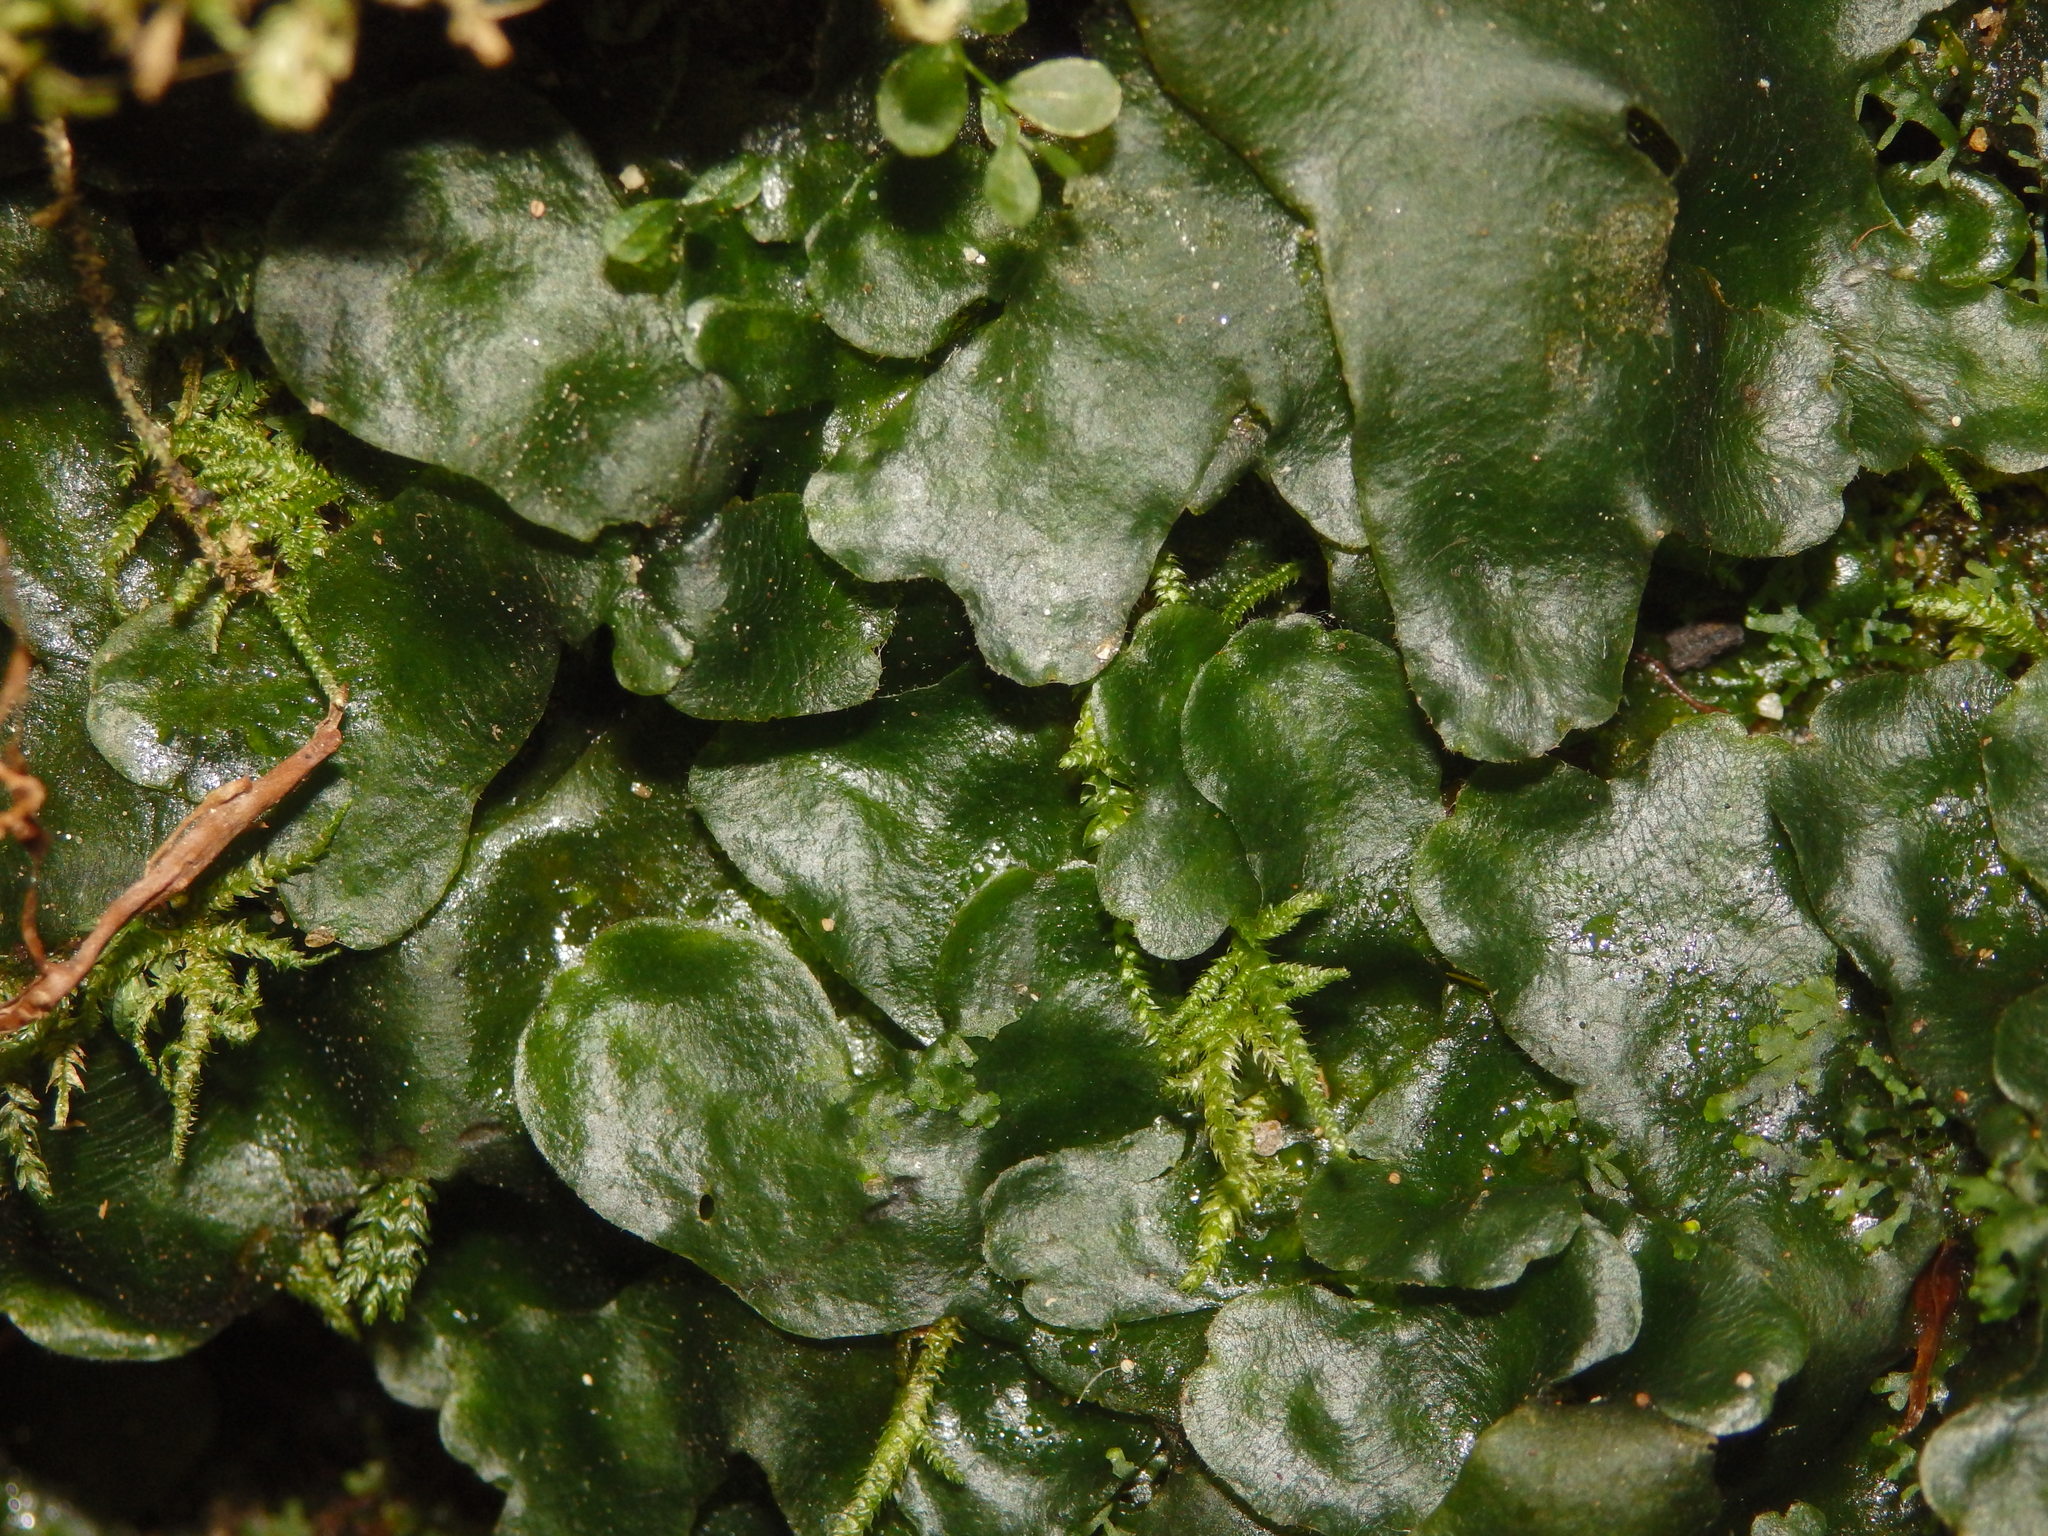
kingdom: Plantae
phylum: Marchantiophyta
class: Marchantiopsida
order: Marchantiales
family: Dumortieraceae
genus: Dumortiera
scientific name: Dumortiera hirsuta
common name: Dumortier's liverwort
